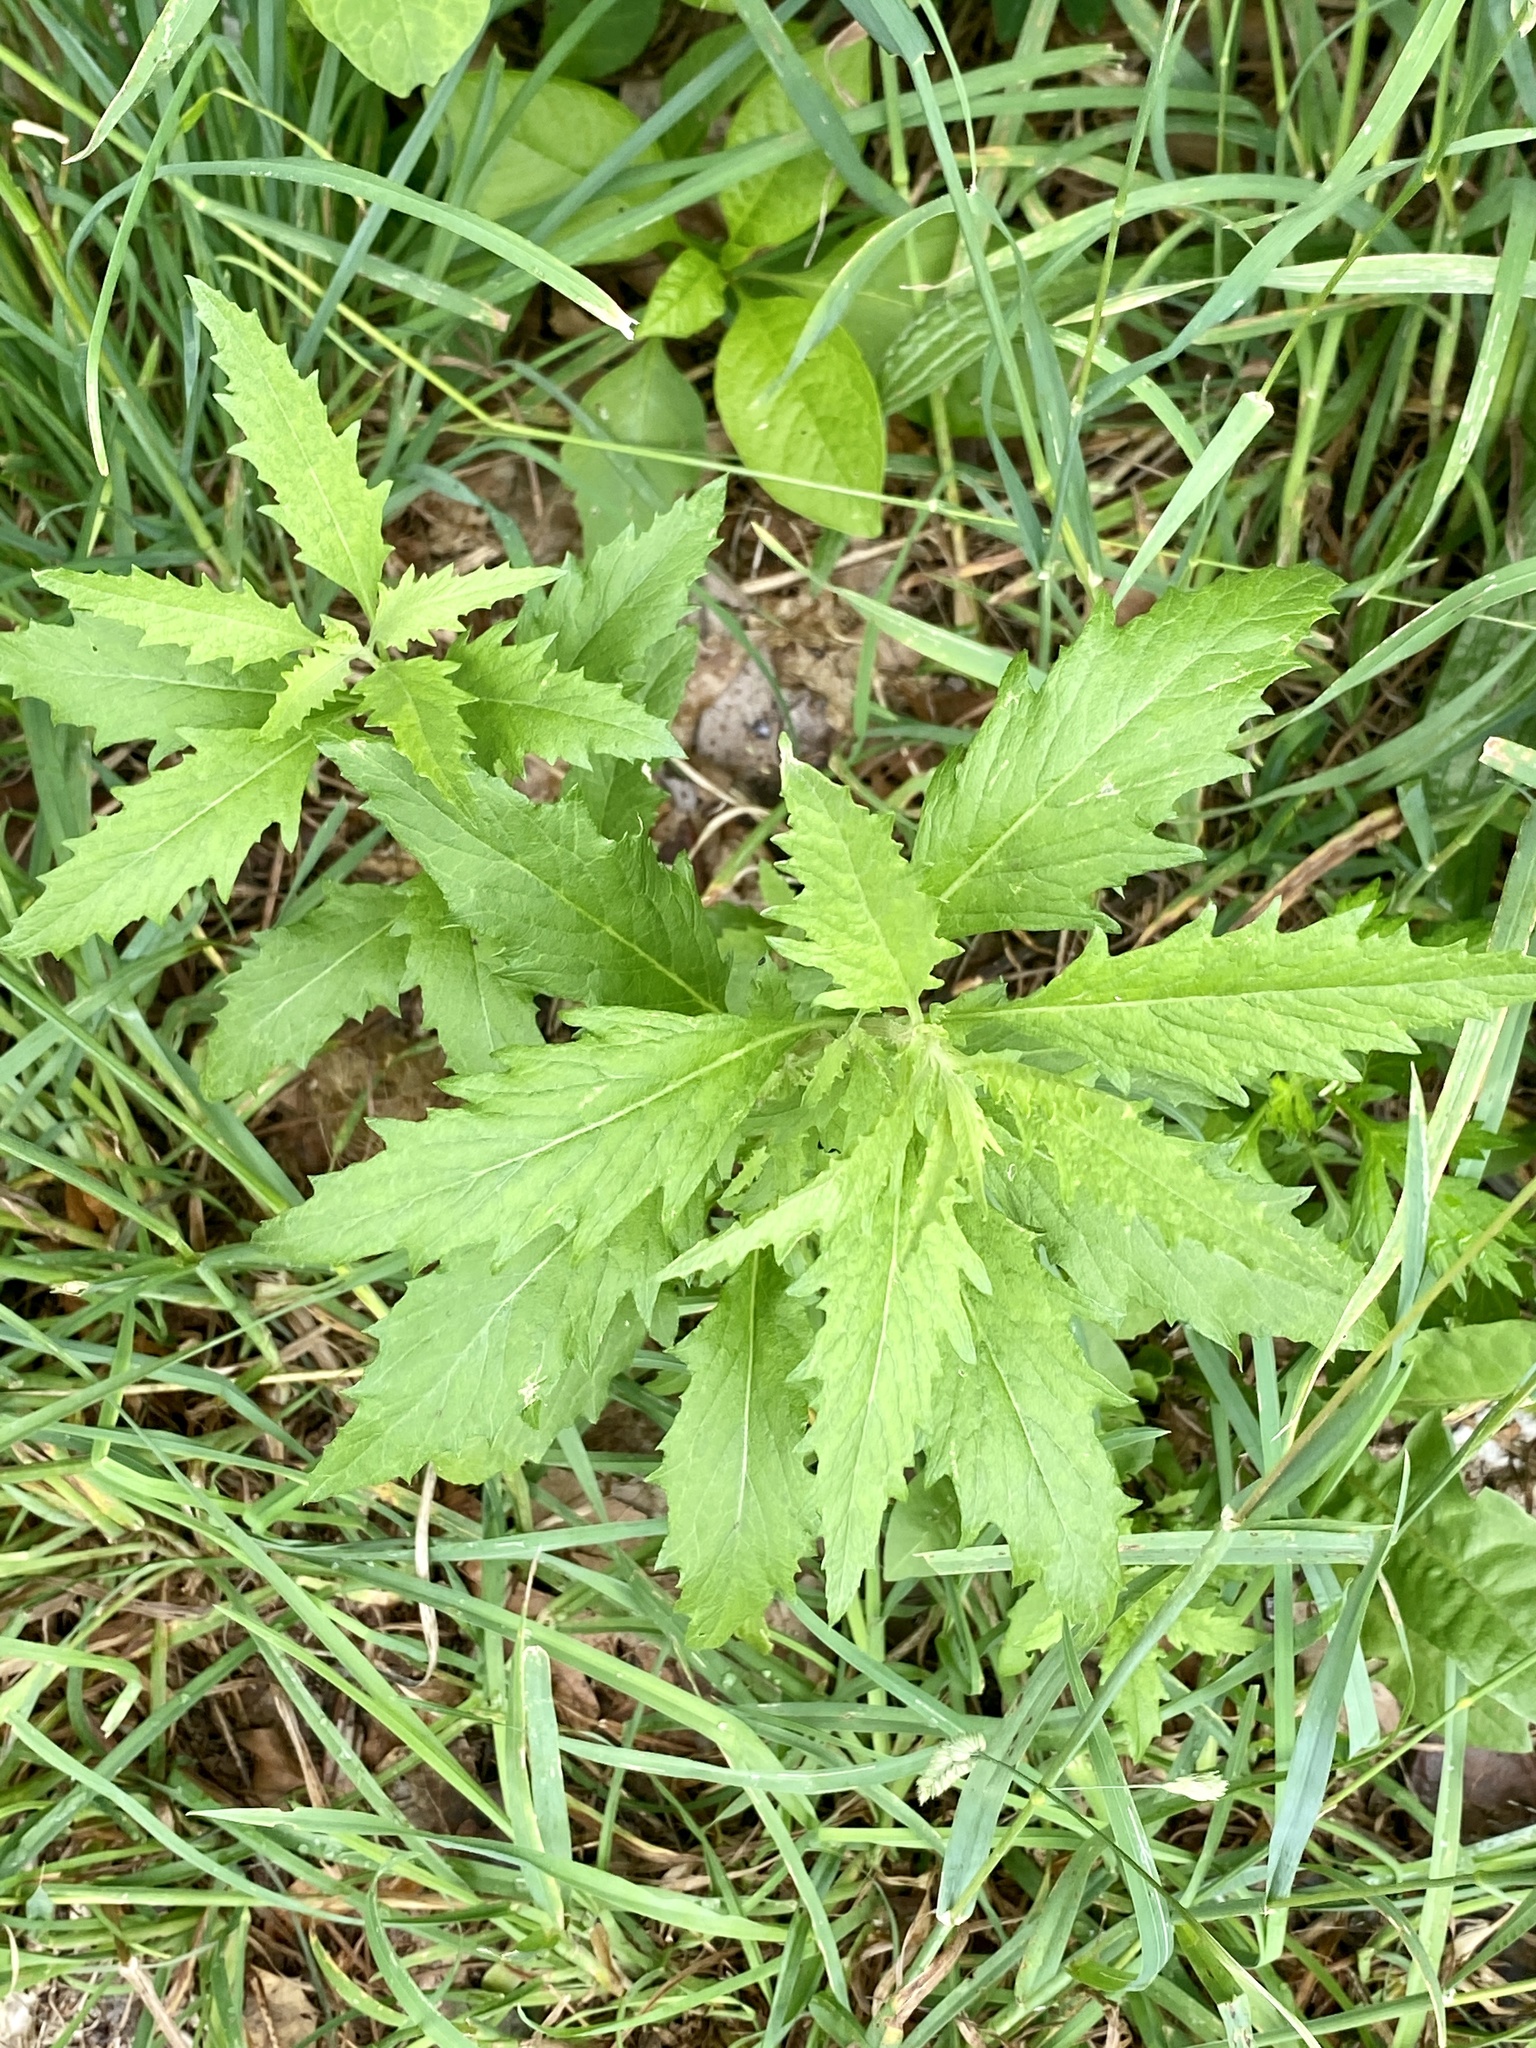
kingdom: Plantae
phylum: Tracheophyta
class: Magnoliopsida
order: Caryophyllales
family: Amaranthaceae
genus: Dysphania
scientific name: Dysphania ambrosioides
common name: Wormseed
